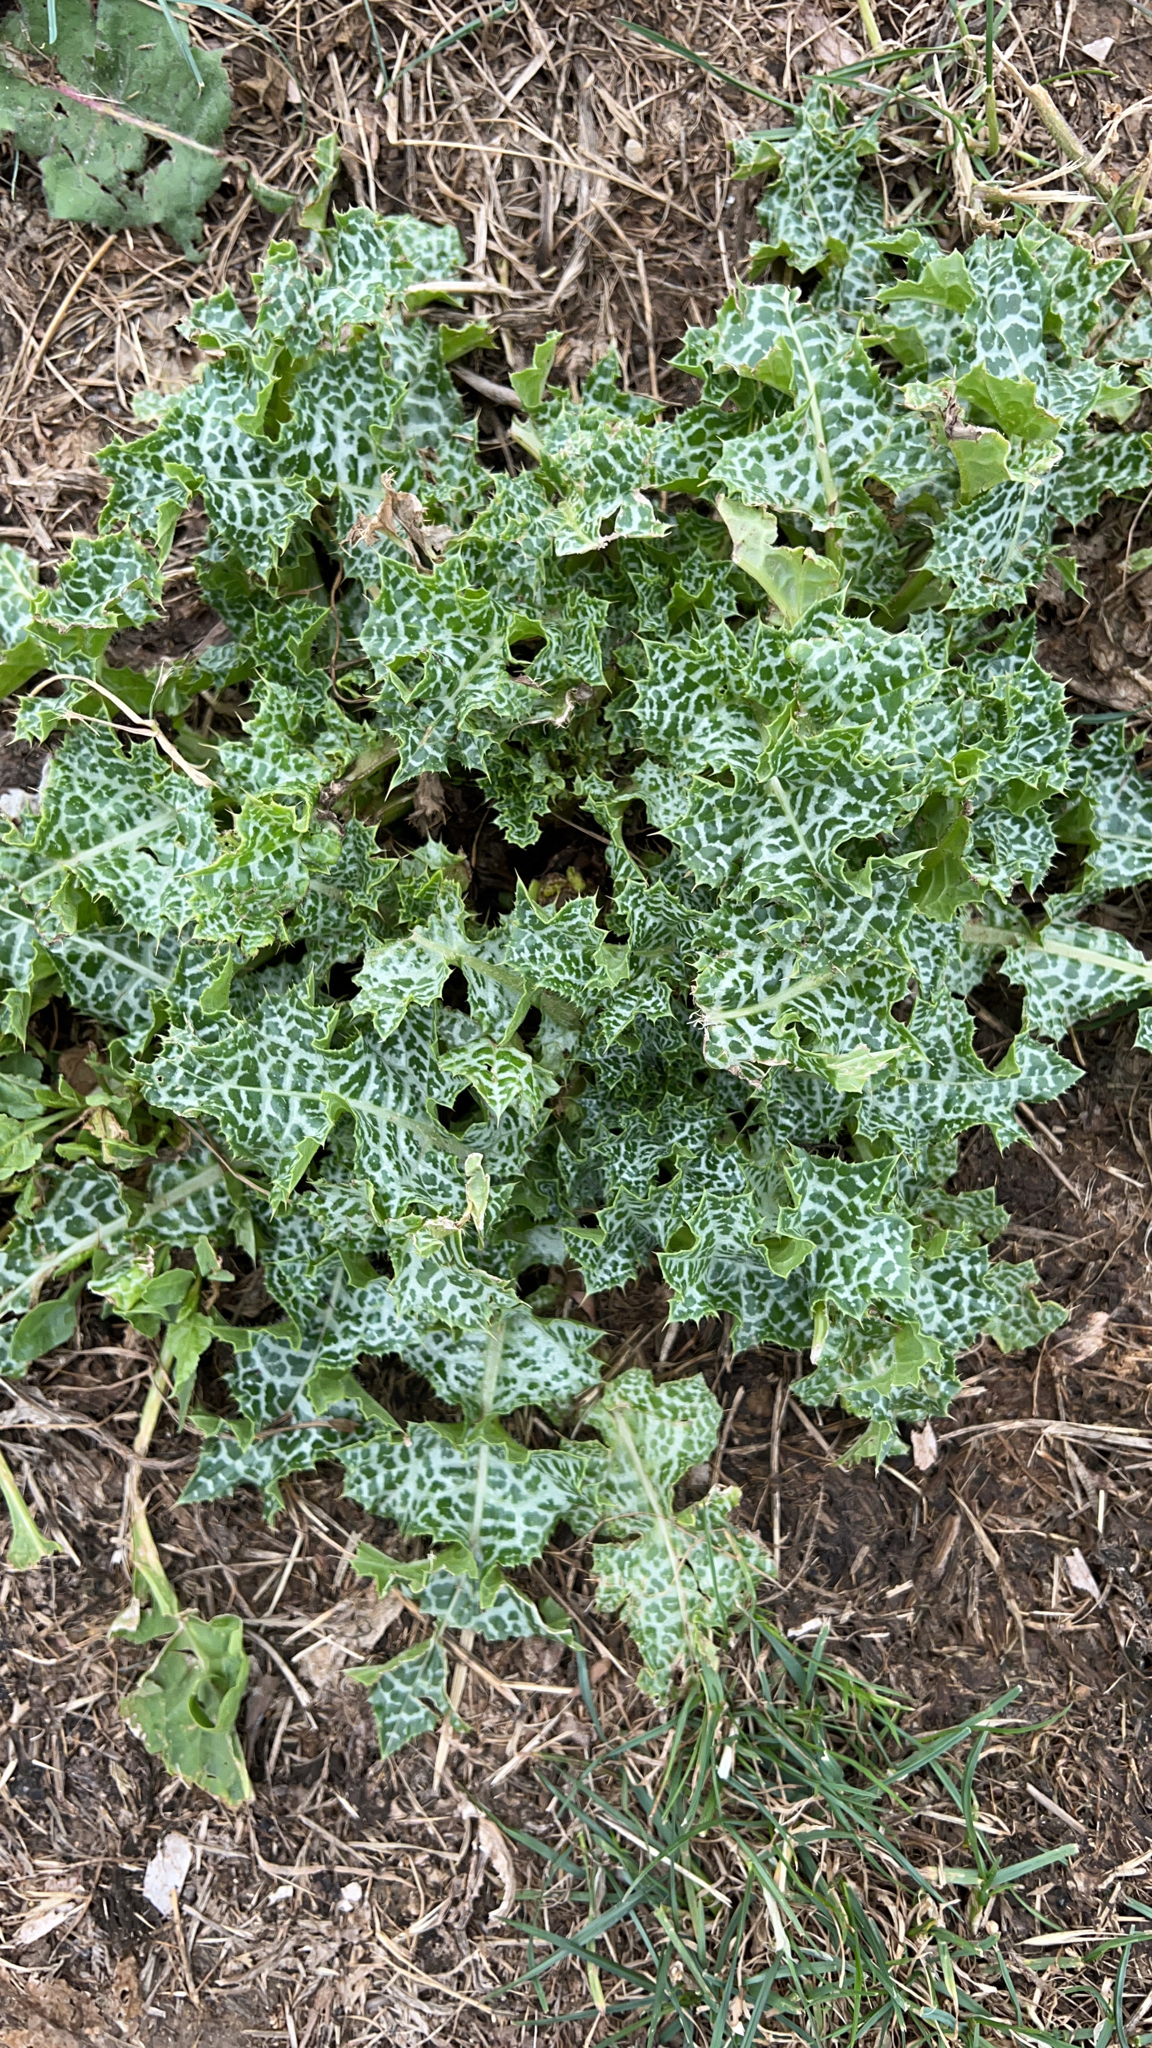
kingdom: Plantae
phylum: Tracheophyta
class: Magnoliopsida
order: Asterales
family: Asteraceae
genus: Silybum
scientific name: Silybum marianum
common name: Milk thistle
